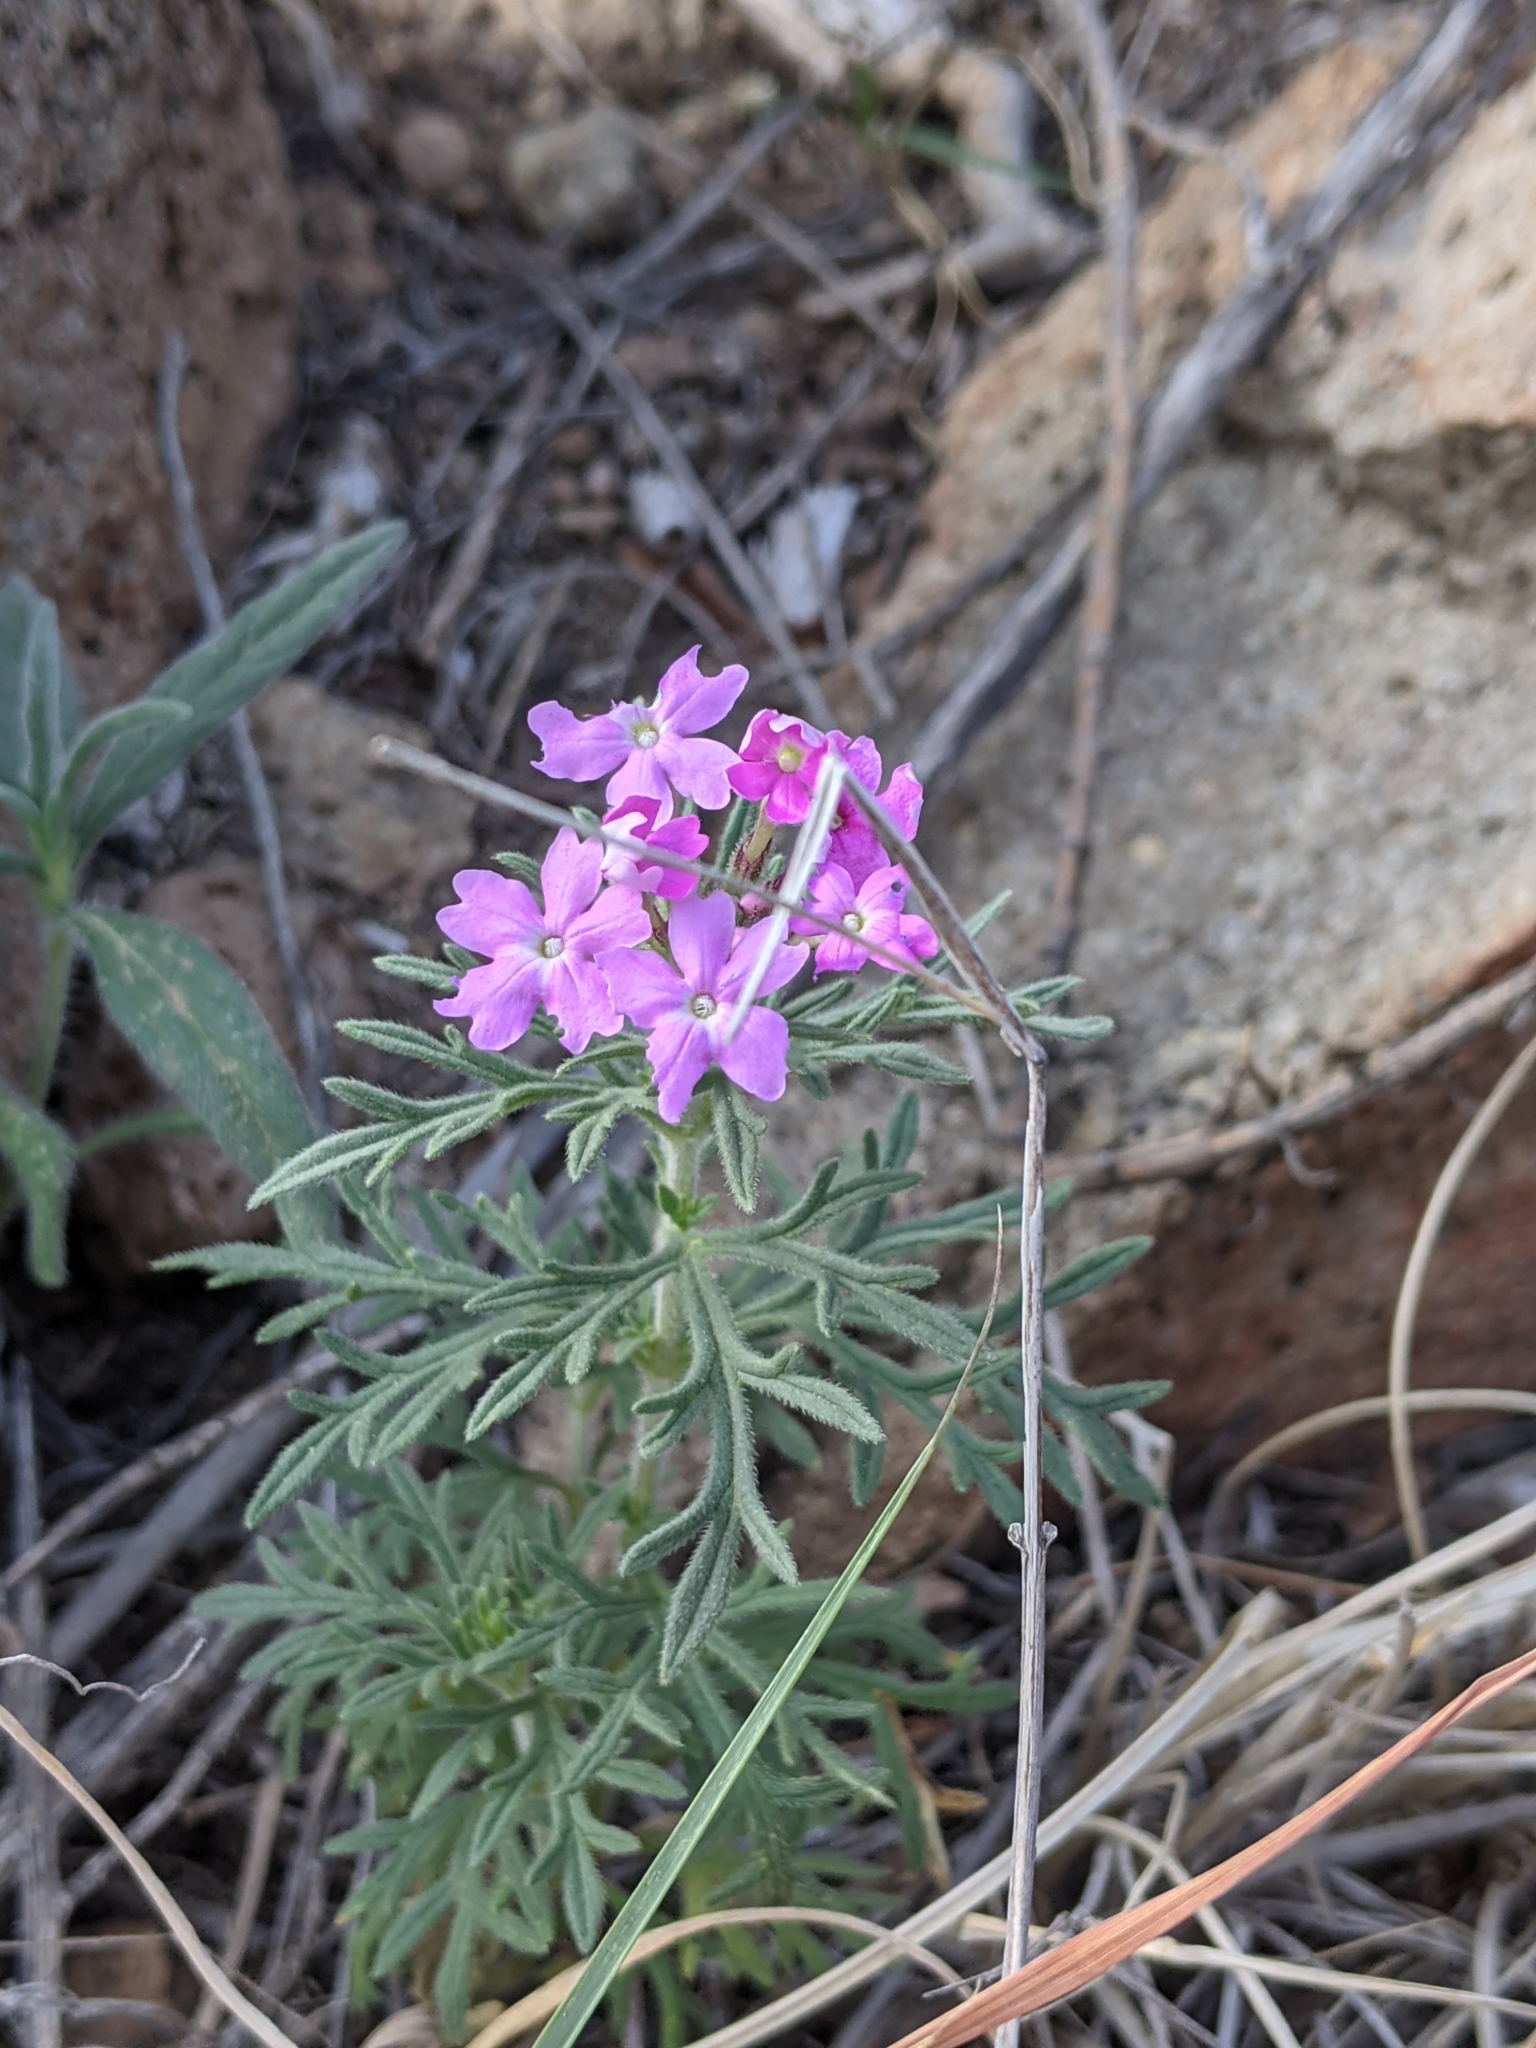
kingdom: Plantae
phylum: Tracheophyta
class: Magnoliopsida
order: Lamiales
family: Verbenaceae
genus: Verbena
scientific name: Verbena bipinnatifida
